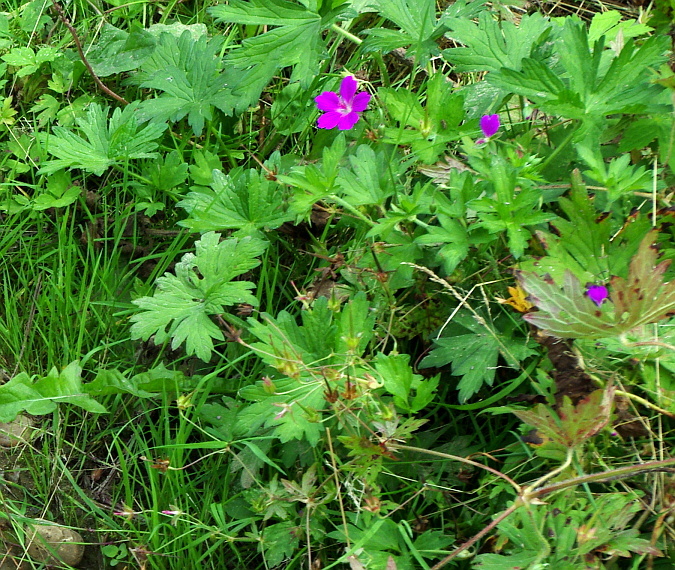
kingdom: Plantae
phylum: Tracheophyta
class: Magnoliopsida
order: Geraniales
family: Geraniaceae
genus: Geranium
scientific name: Geranium palustre
